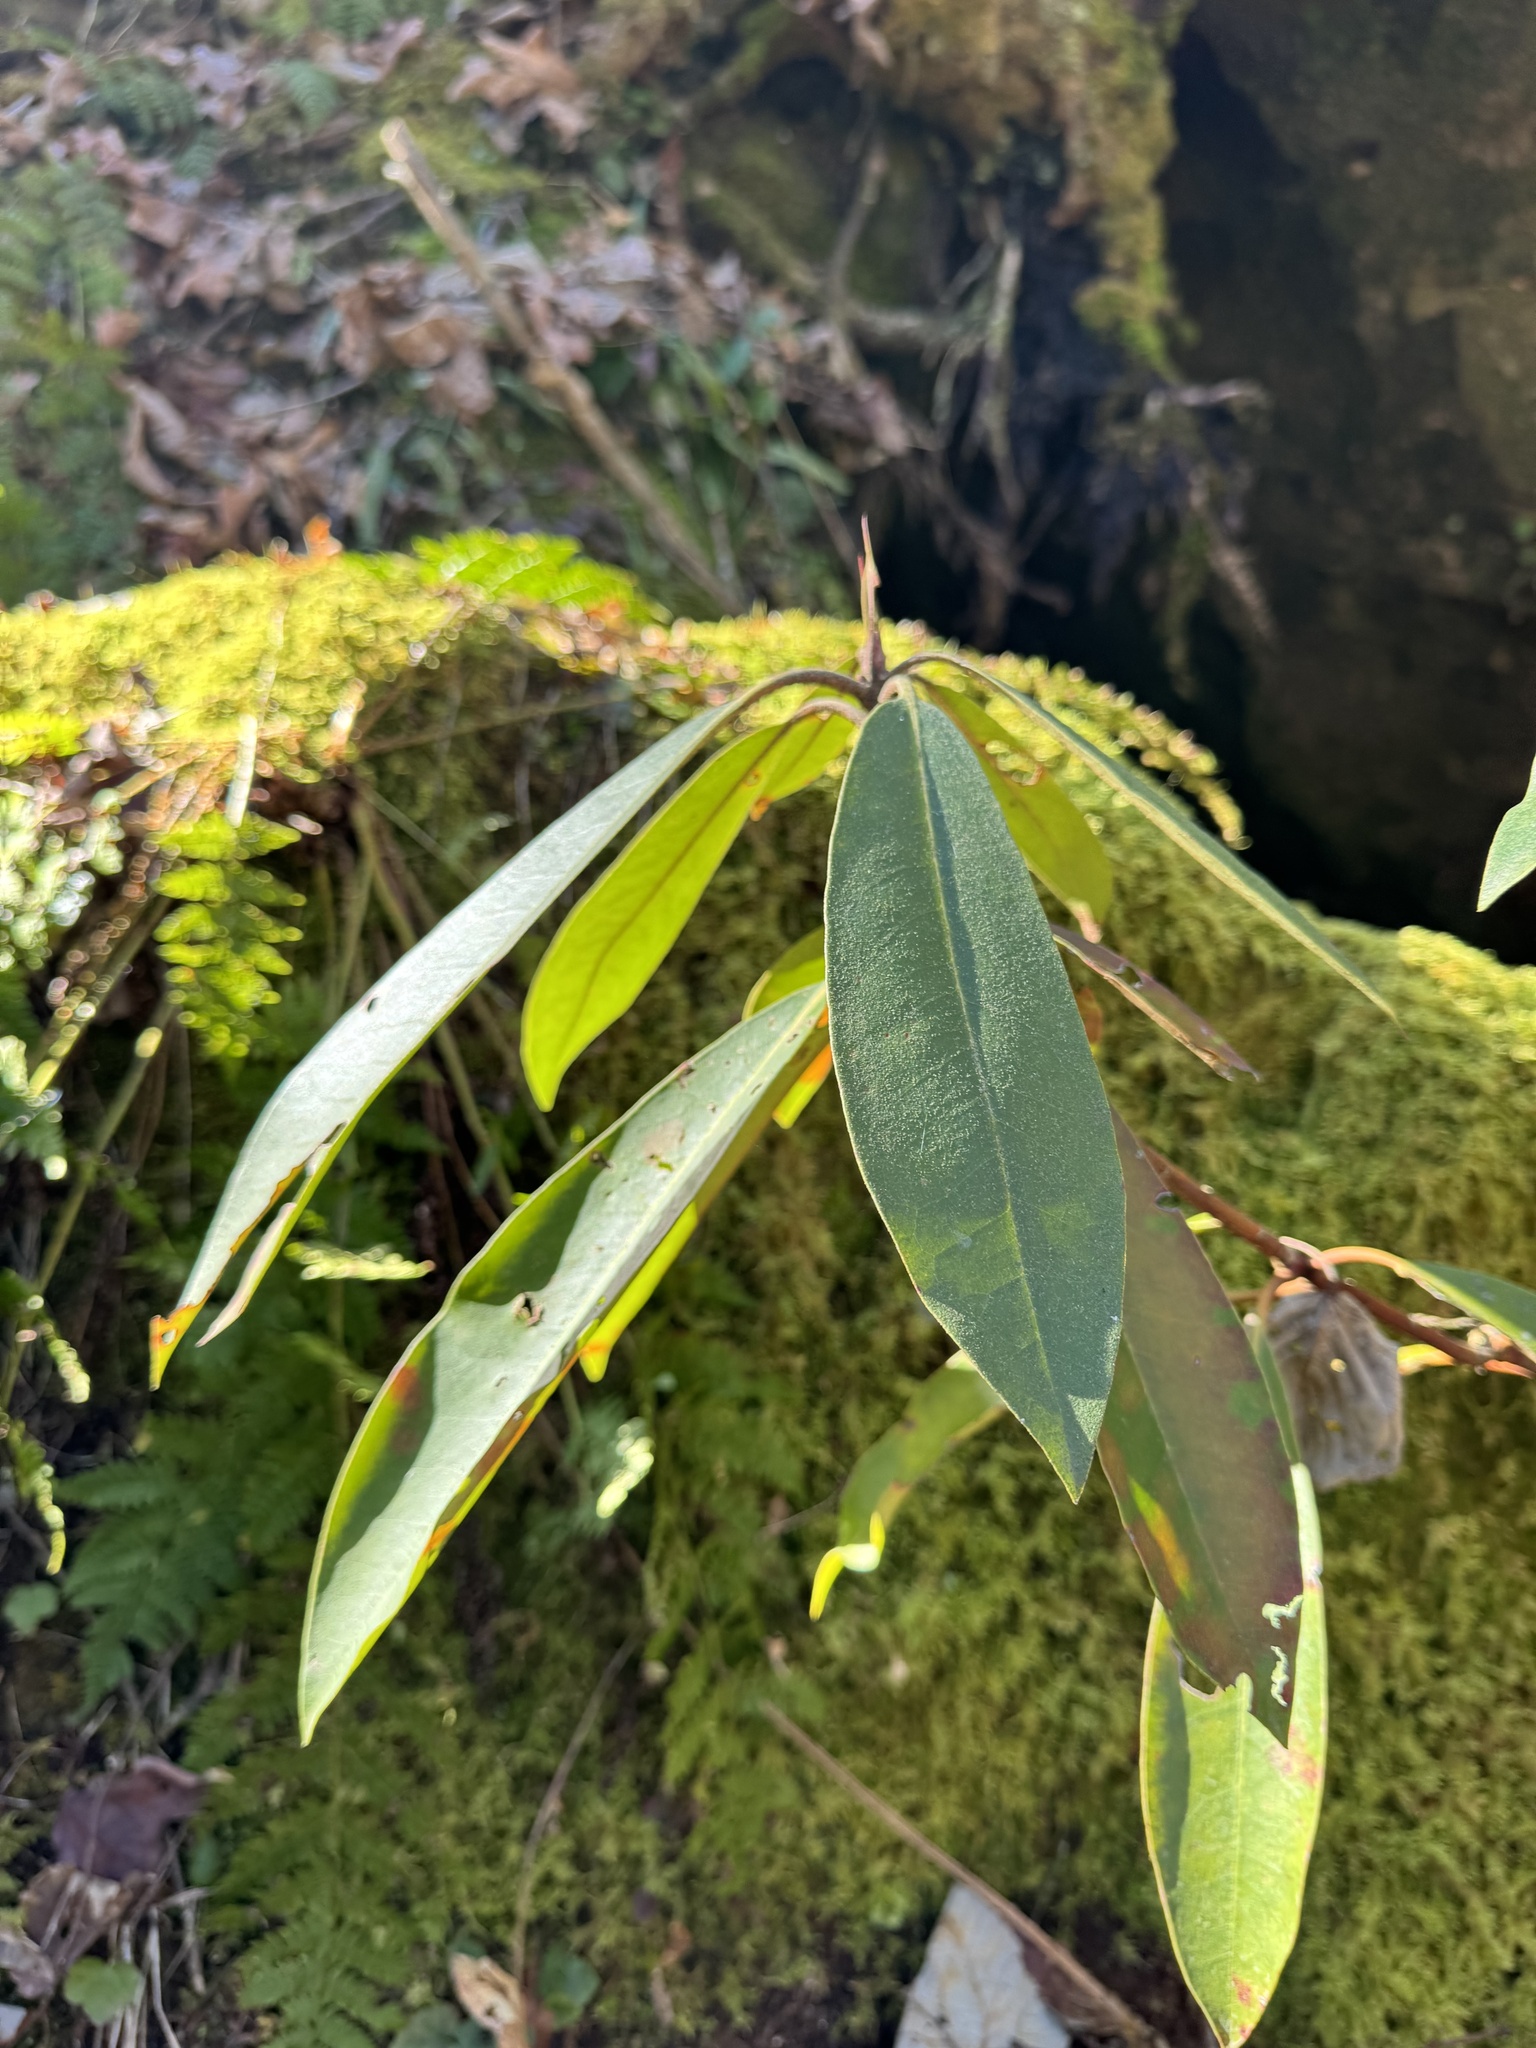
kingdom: Plantae
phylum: Tracheophyta
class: Magnoliopsida
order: Ericales
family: Ericaceae
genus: Rhododendron
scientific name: Rhododendron maximum
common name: Great rhododendron
